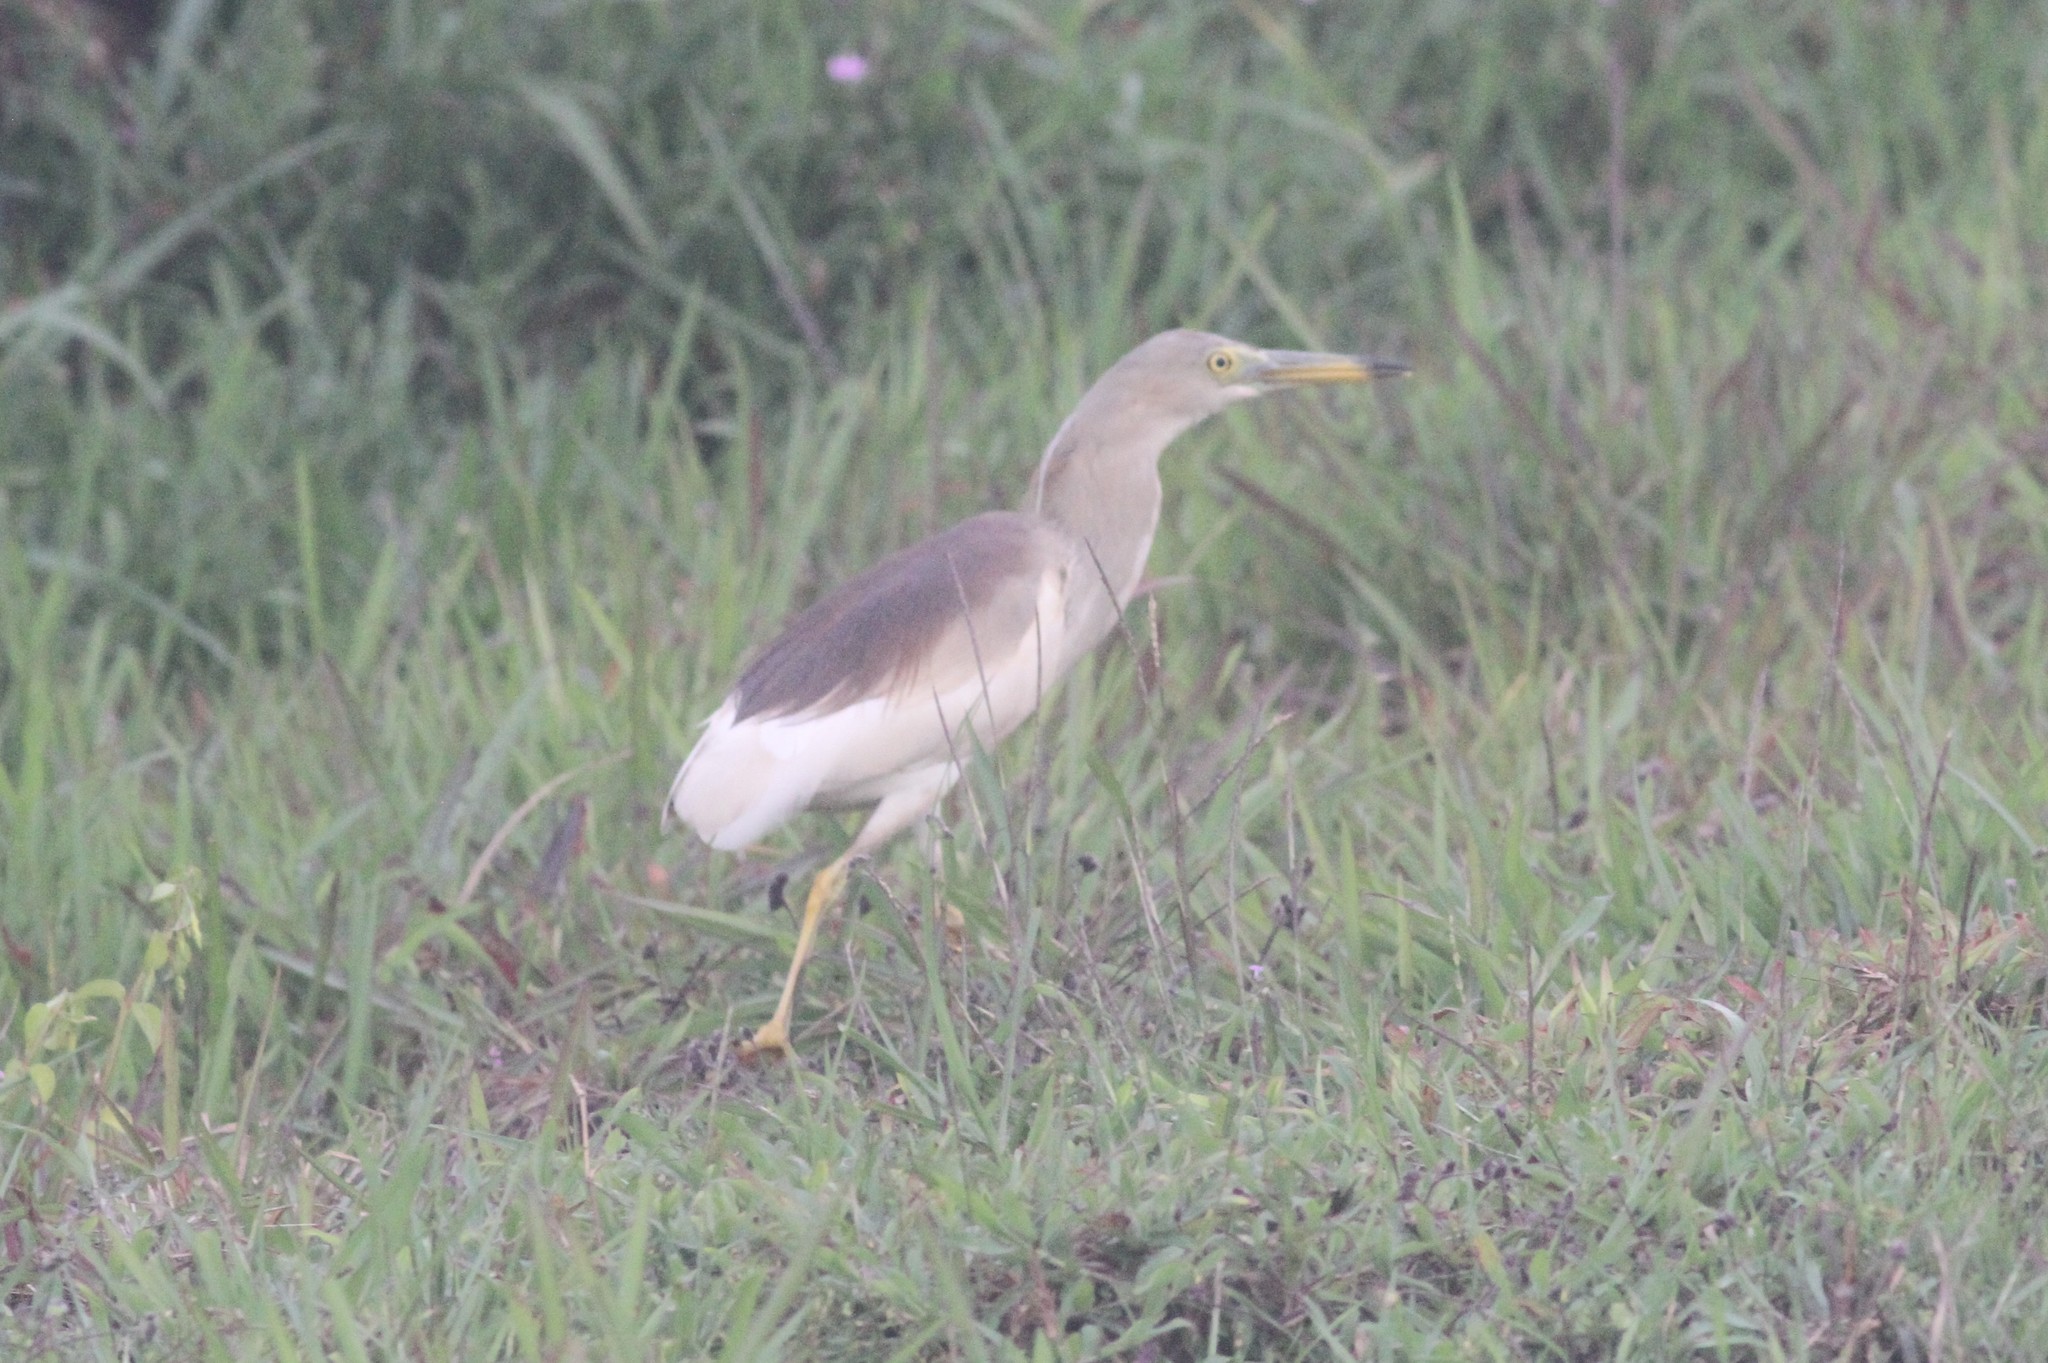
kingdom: Animalia
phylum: Chordata
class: Aves
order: Pelecaniformes
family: Ardeidae
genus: Ardeola
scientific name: Ardeola grayii
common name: Indian pond heron
